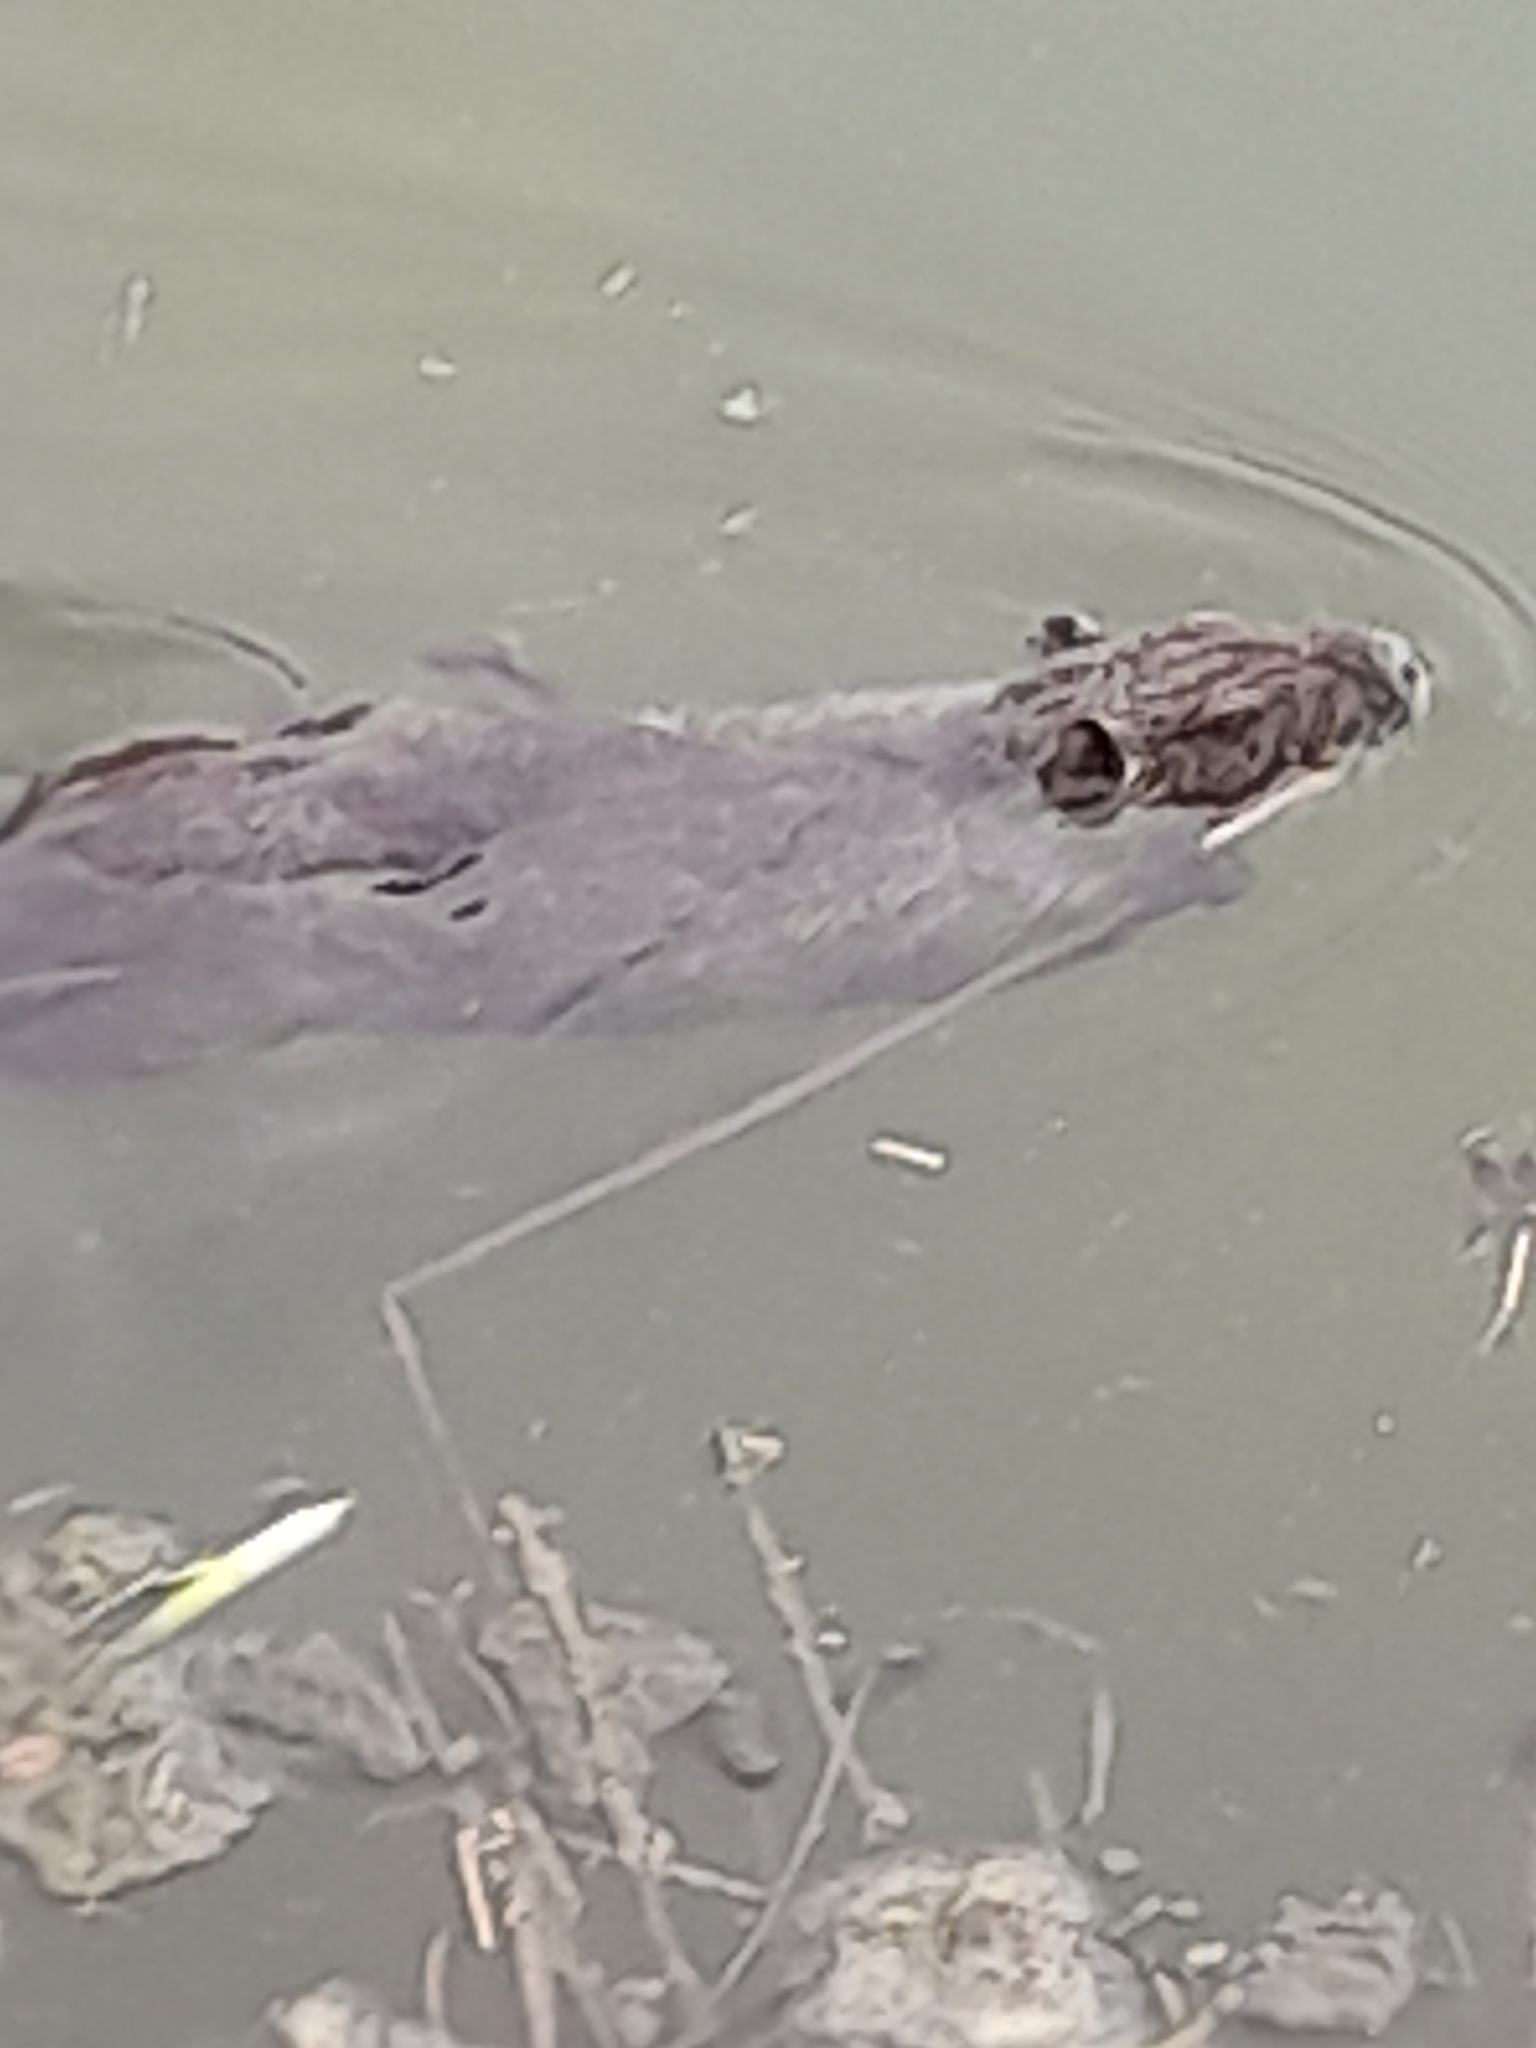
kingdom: Animalia
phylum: Chordata
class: Mammalia
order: Rodentia
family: Myocastoridae
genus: Myocastor
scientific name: Myocastor coypus
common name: Coypu
